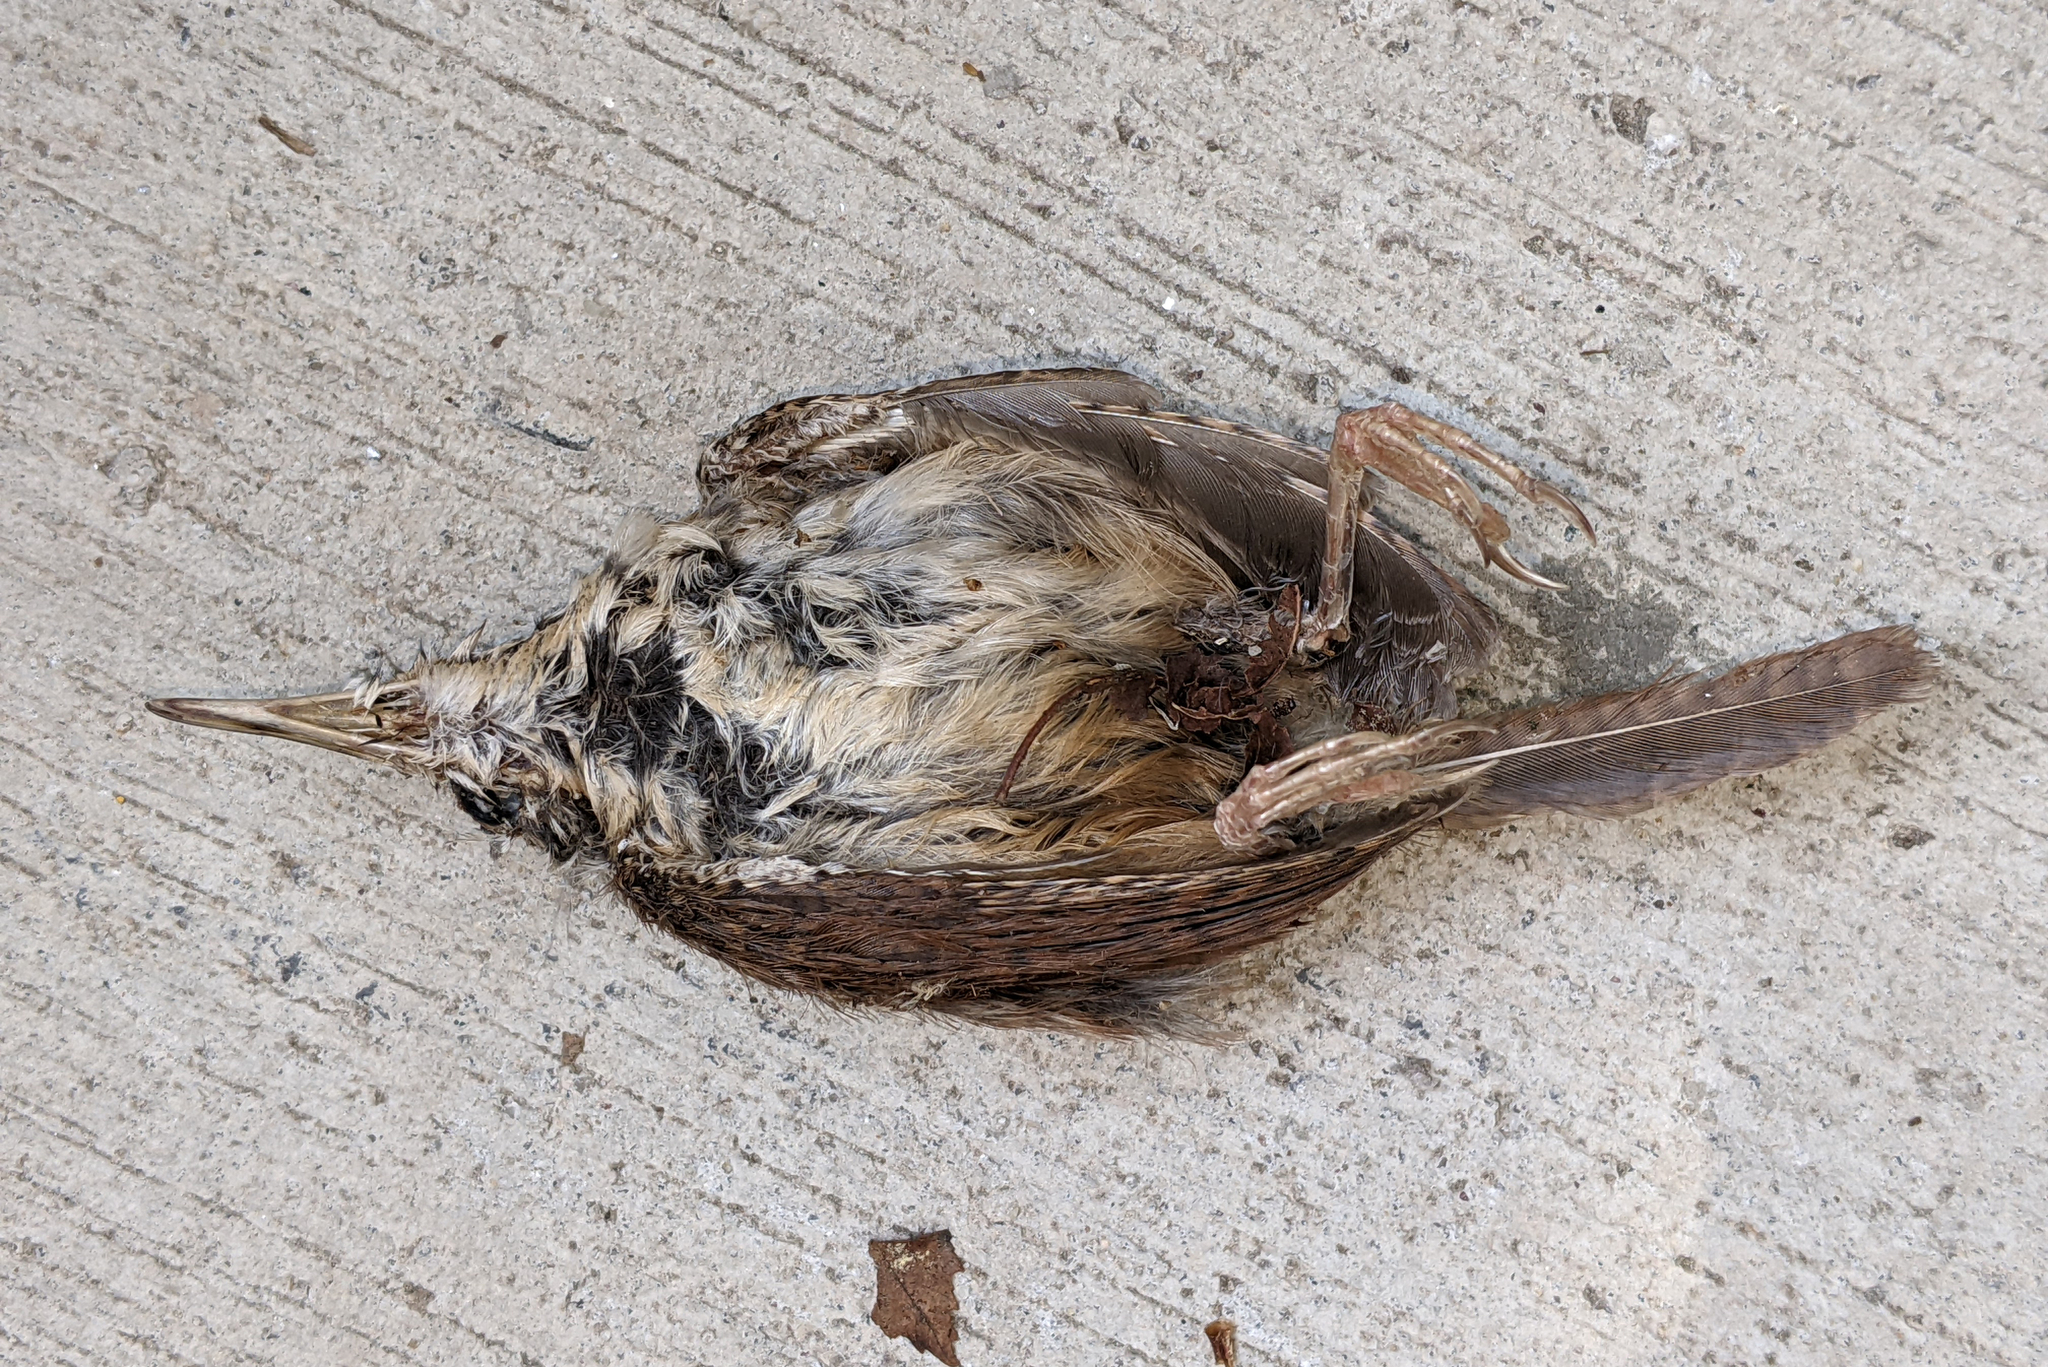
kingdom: Animalia
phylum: Chordata
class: Aves
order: Passeriformes
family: Troglodytidae
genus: Thryothorus
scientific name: Thryothorus ludovicianus
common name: Carolina wren
